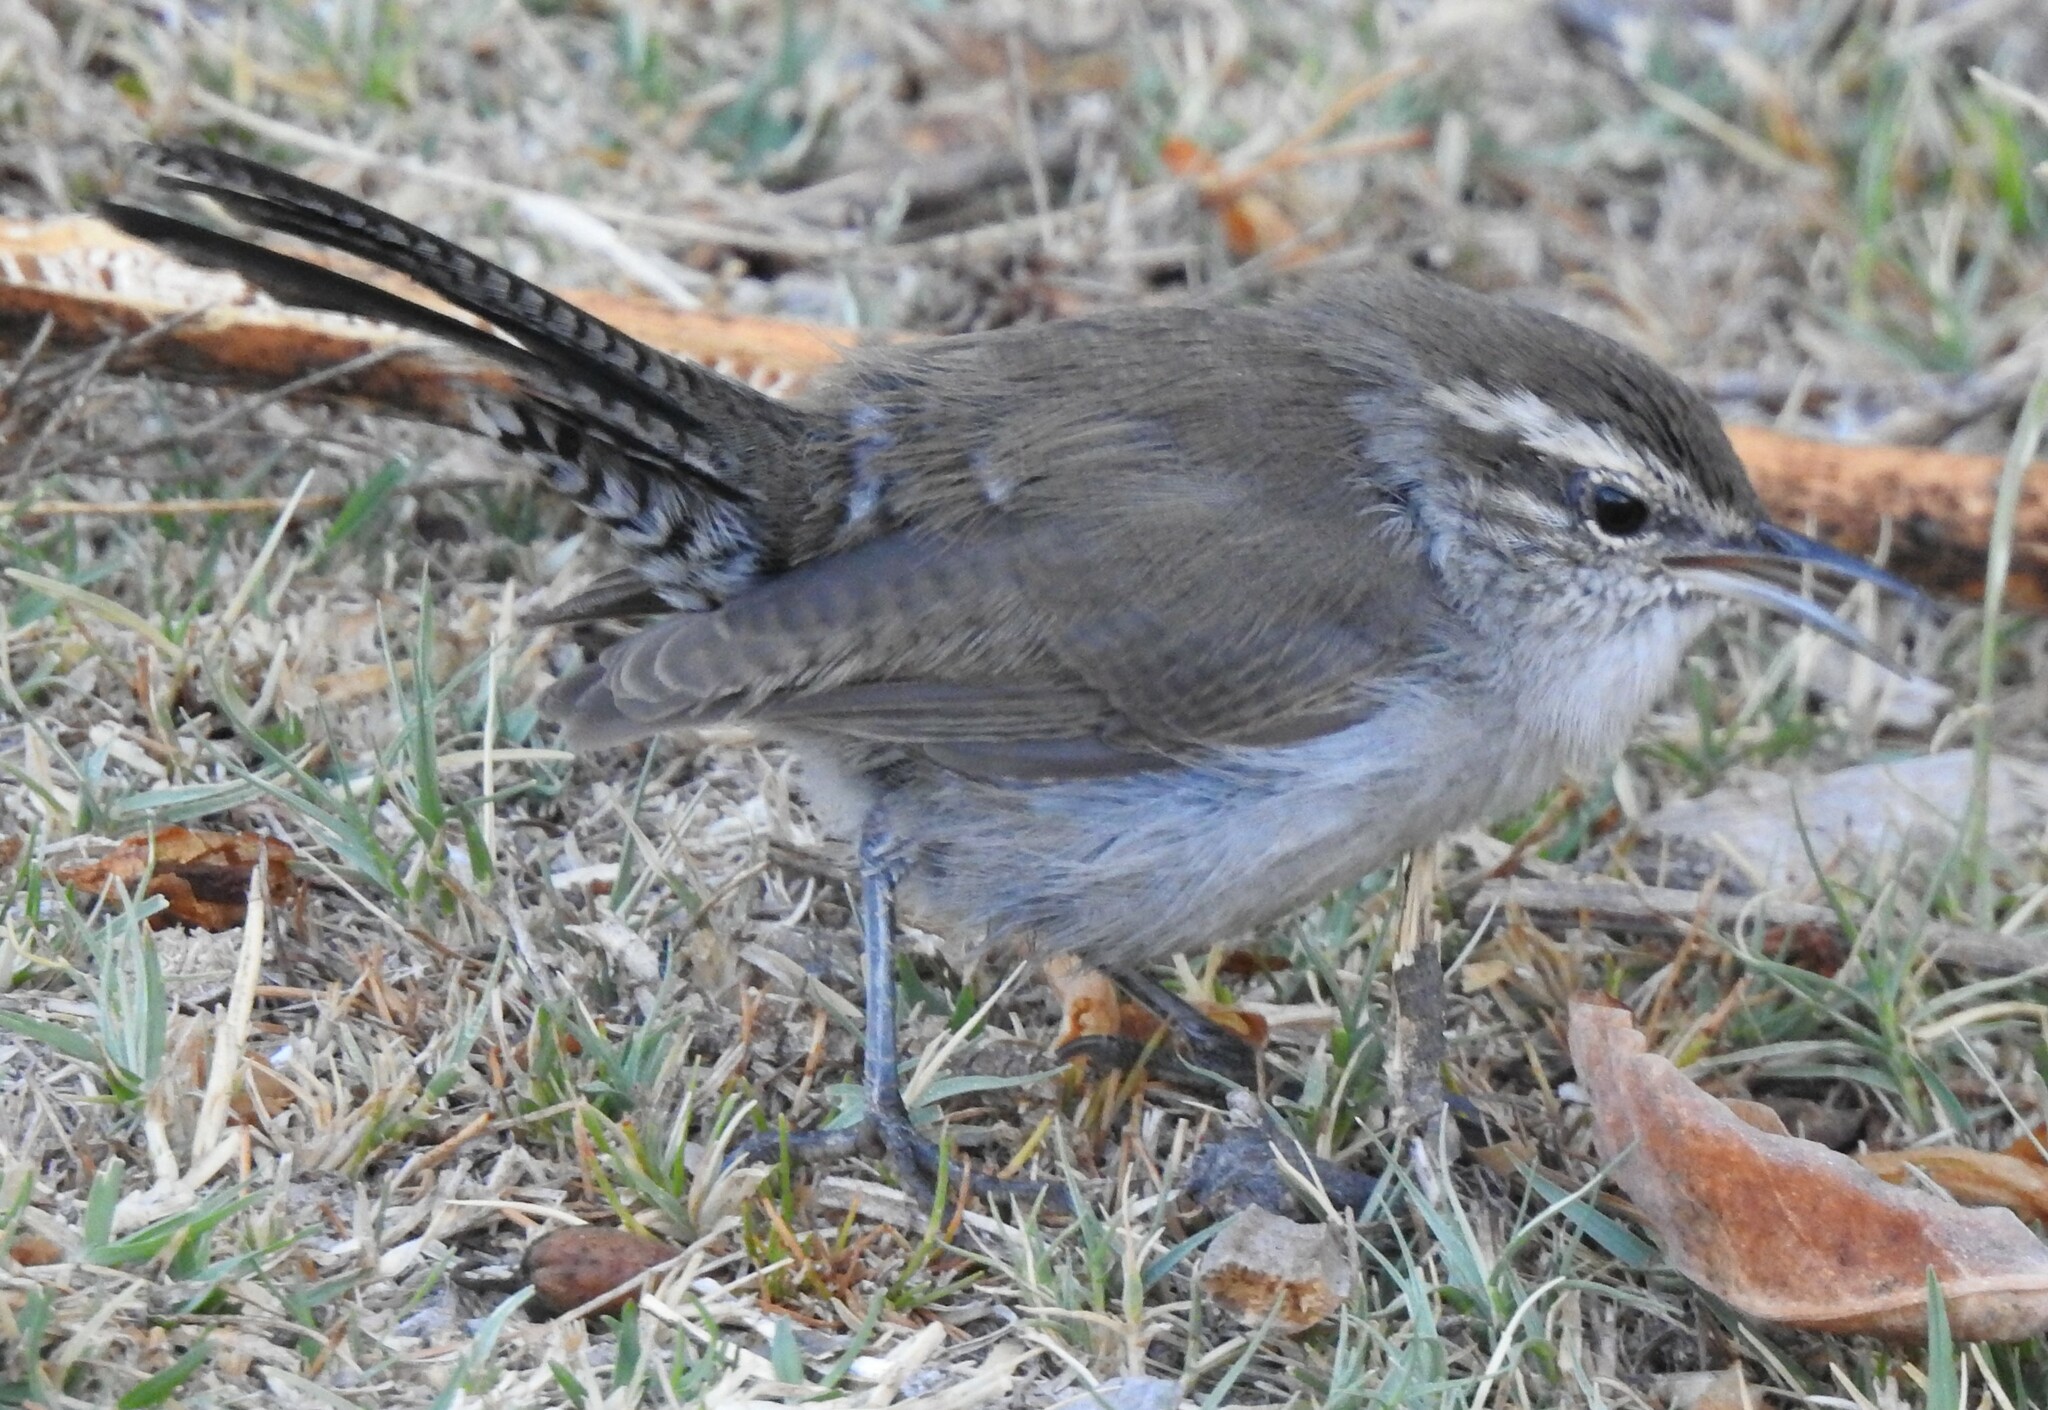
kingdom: Animalia
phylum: Chordata
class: Aves
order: Passeriformes
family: Troglodytidae
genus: Thryomanes
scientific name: Thryomanes bewickii
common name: Bewick's wren
